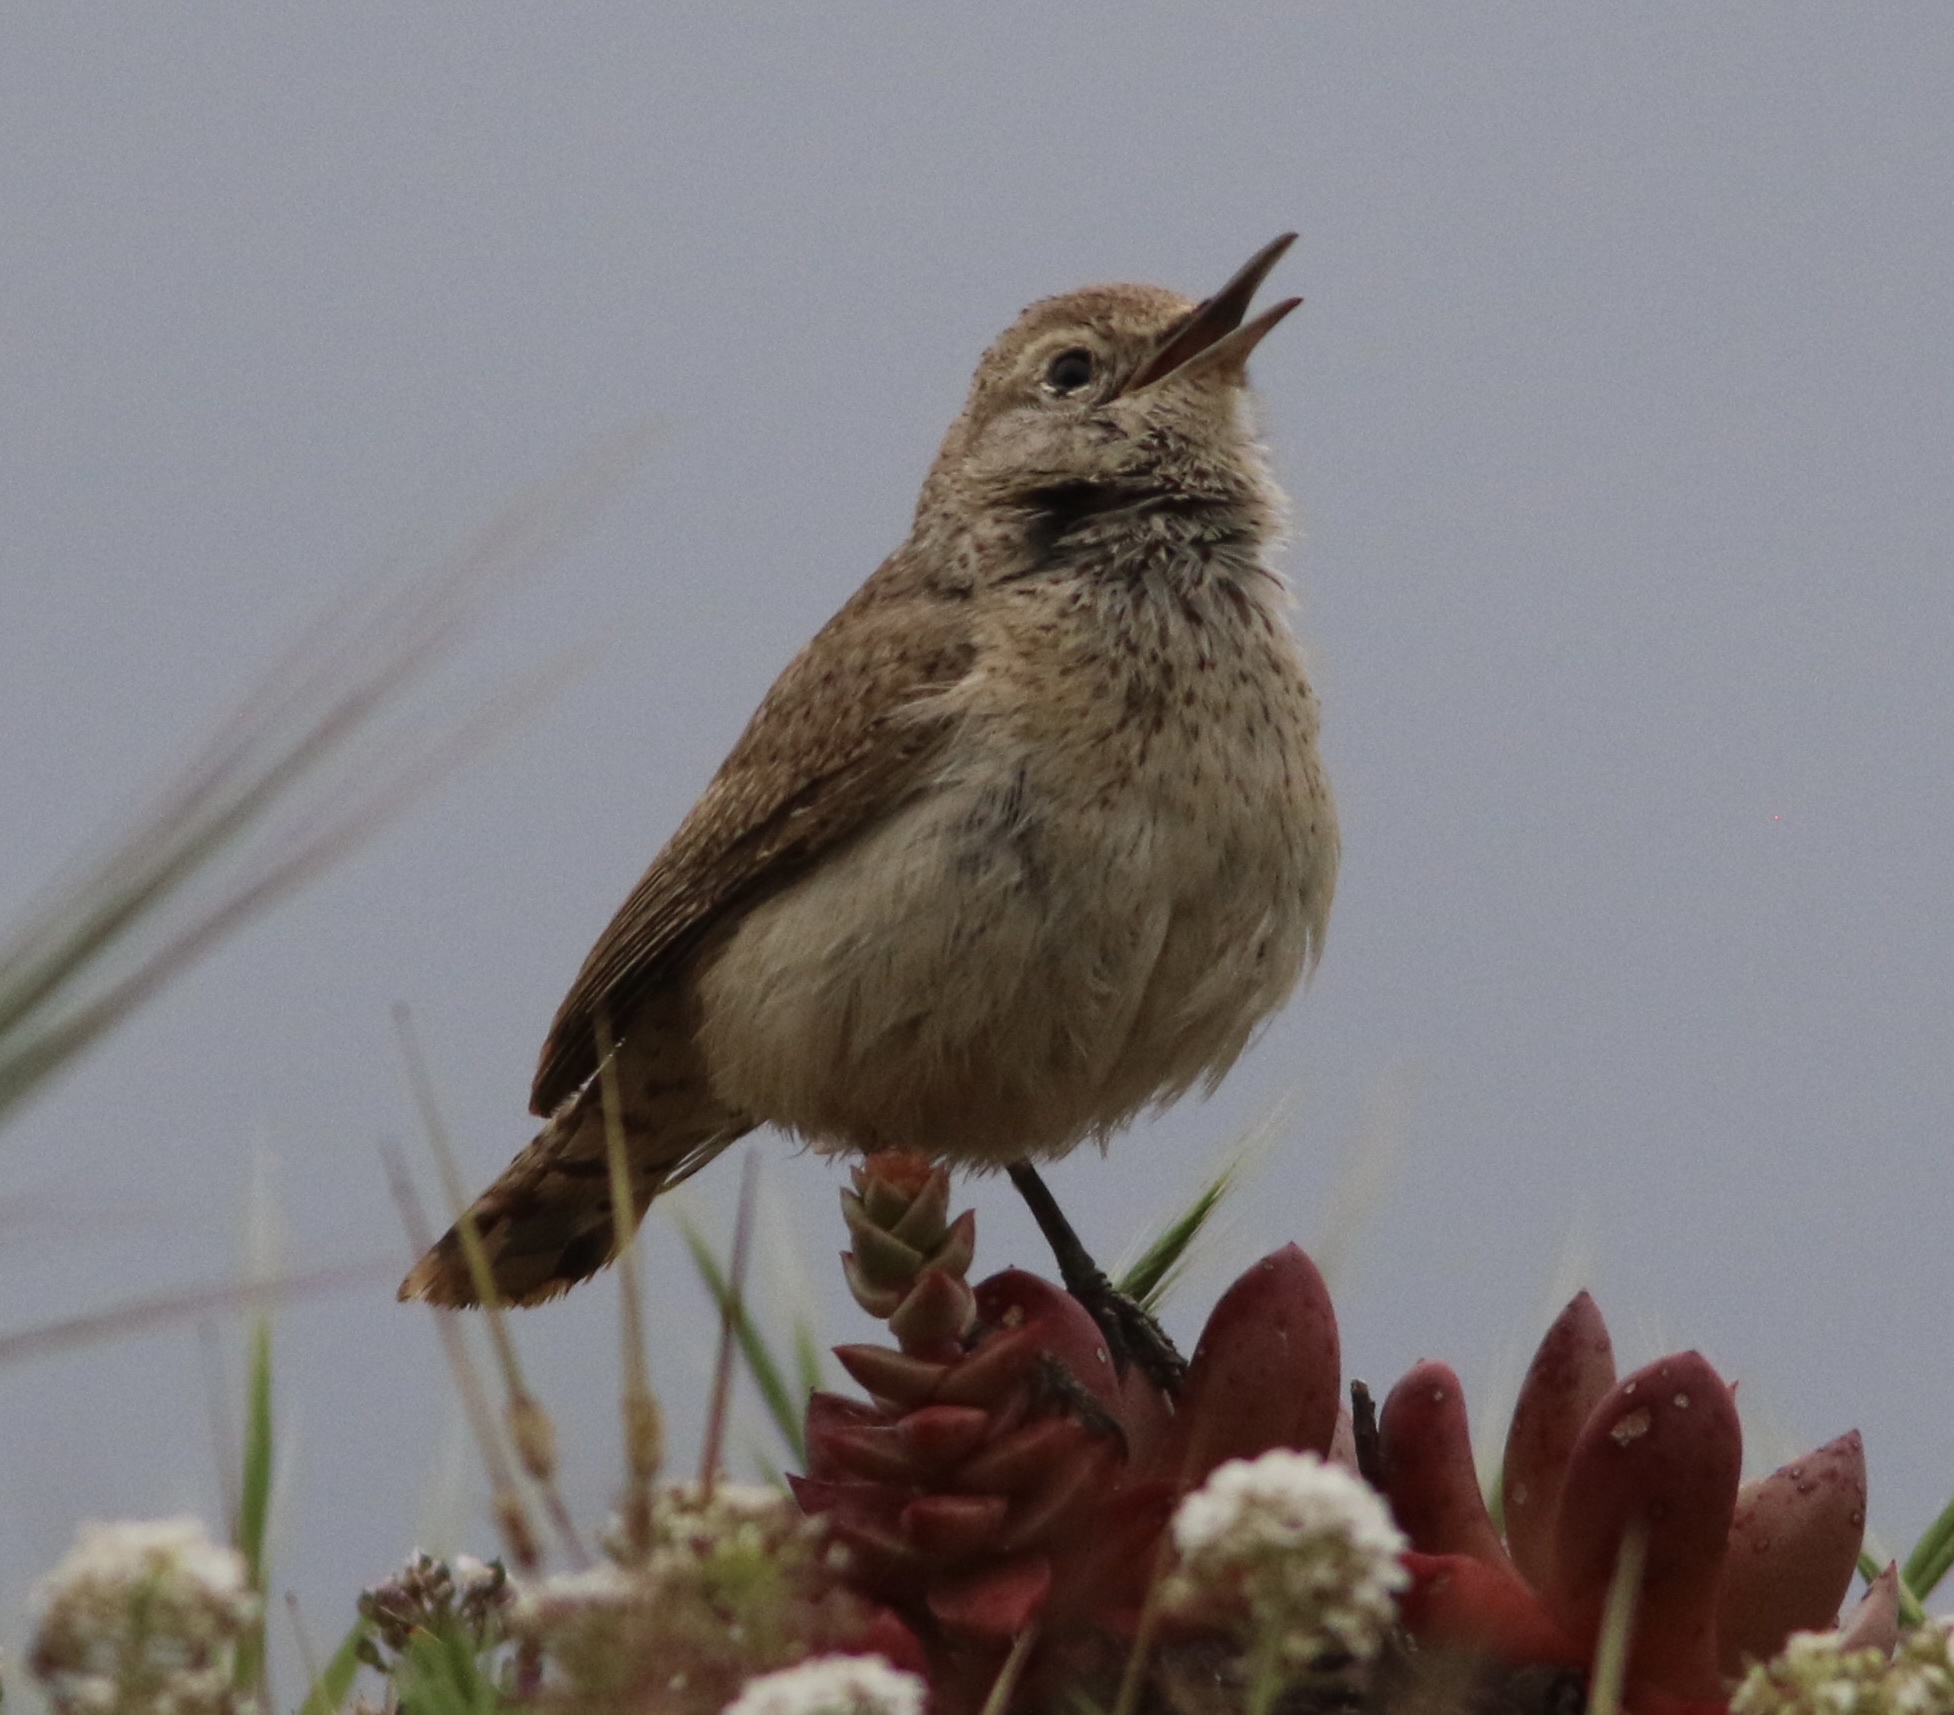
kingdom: Animalia
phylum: Chordata
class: Aves
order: Passeriformes
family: Troglodytidae
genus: Salpinctes
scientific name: Salpinctes obsoletus
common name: Rock wren
